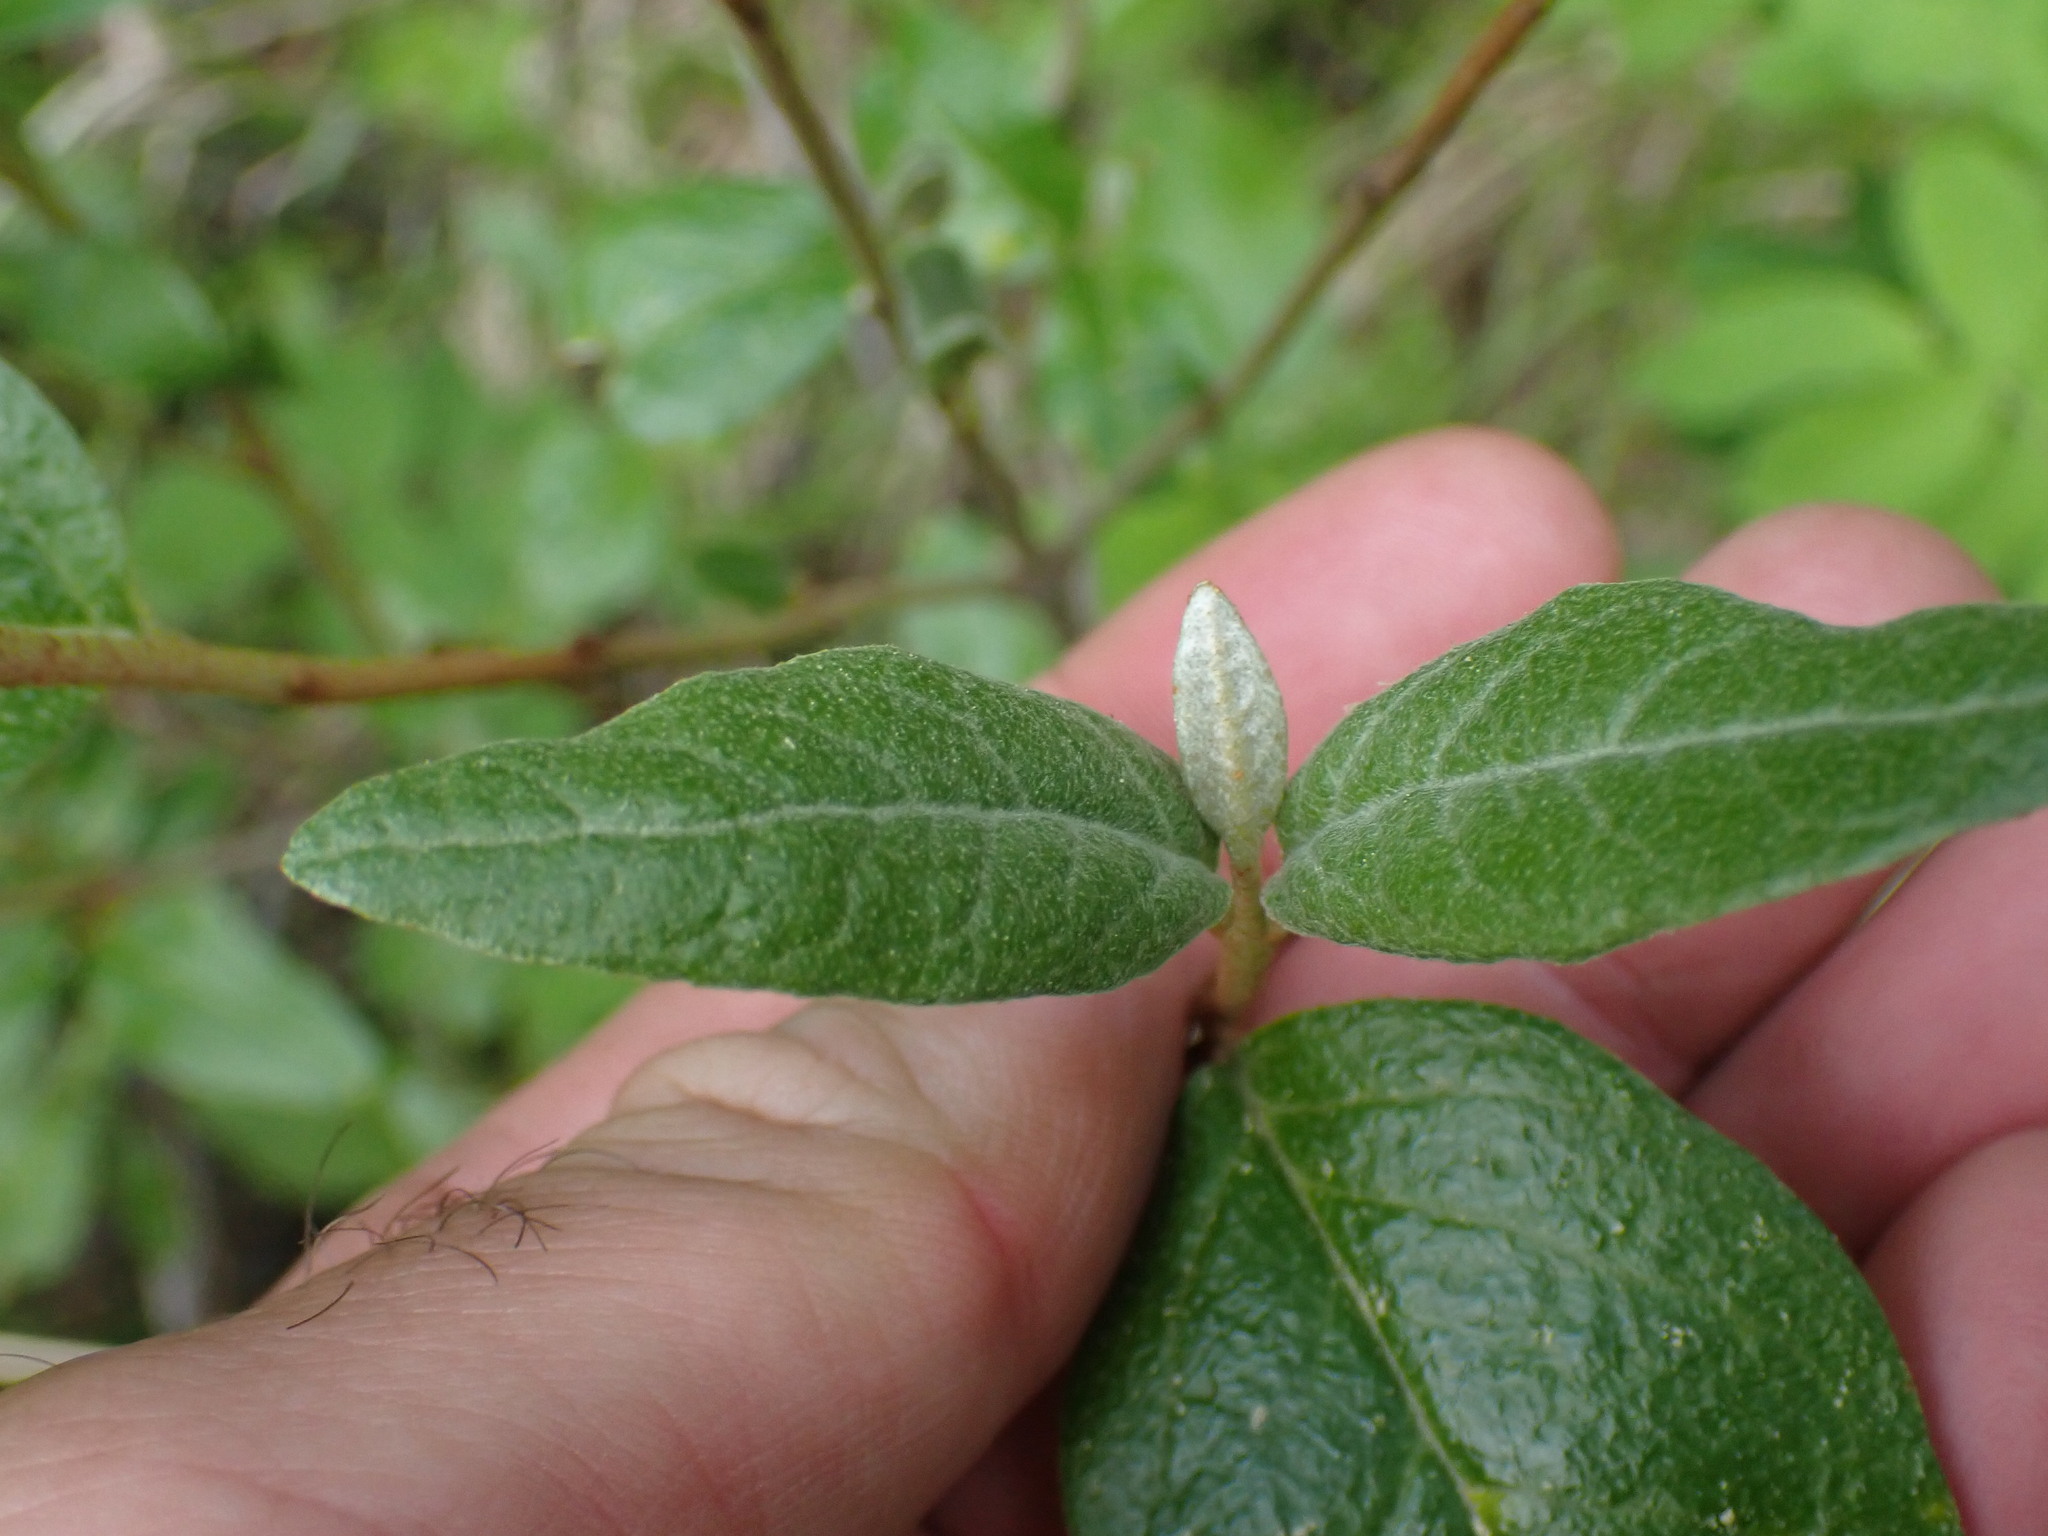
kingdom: Plantae
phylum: Tracheophyta
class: Magnoliopsida
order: Rosales
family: Elaeagnaceae
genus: Shepherdia
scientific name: Shepherdia canadensis
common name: Soapberry
